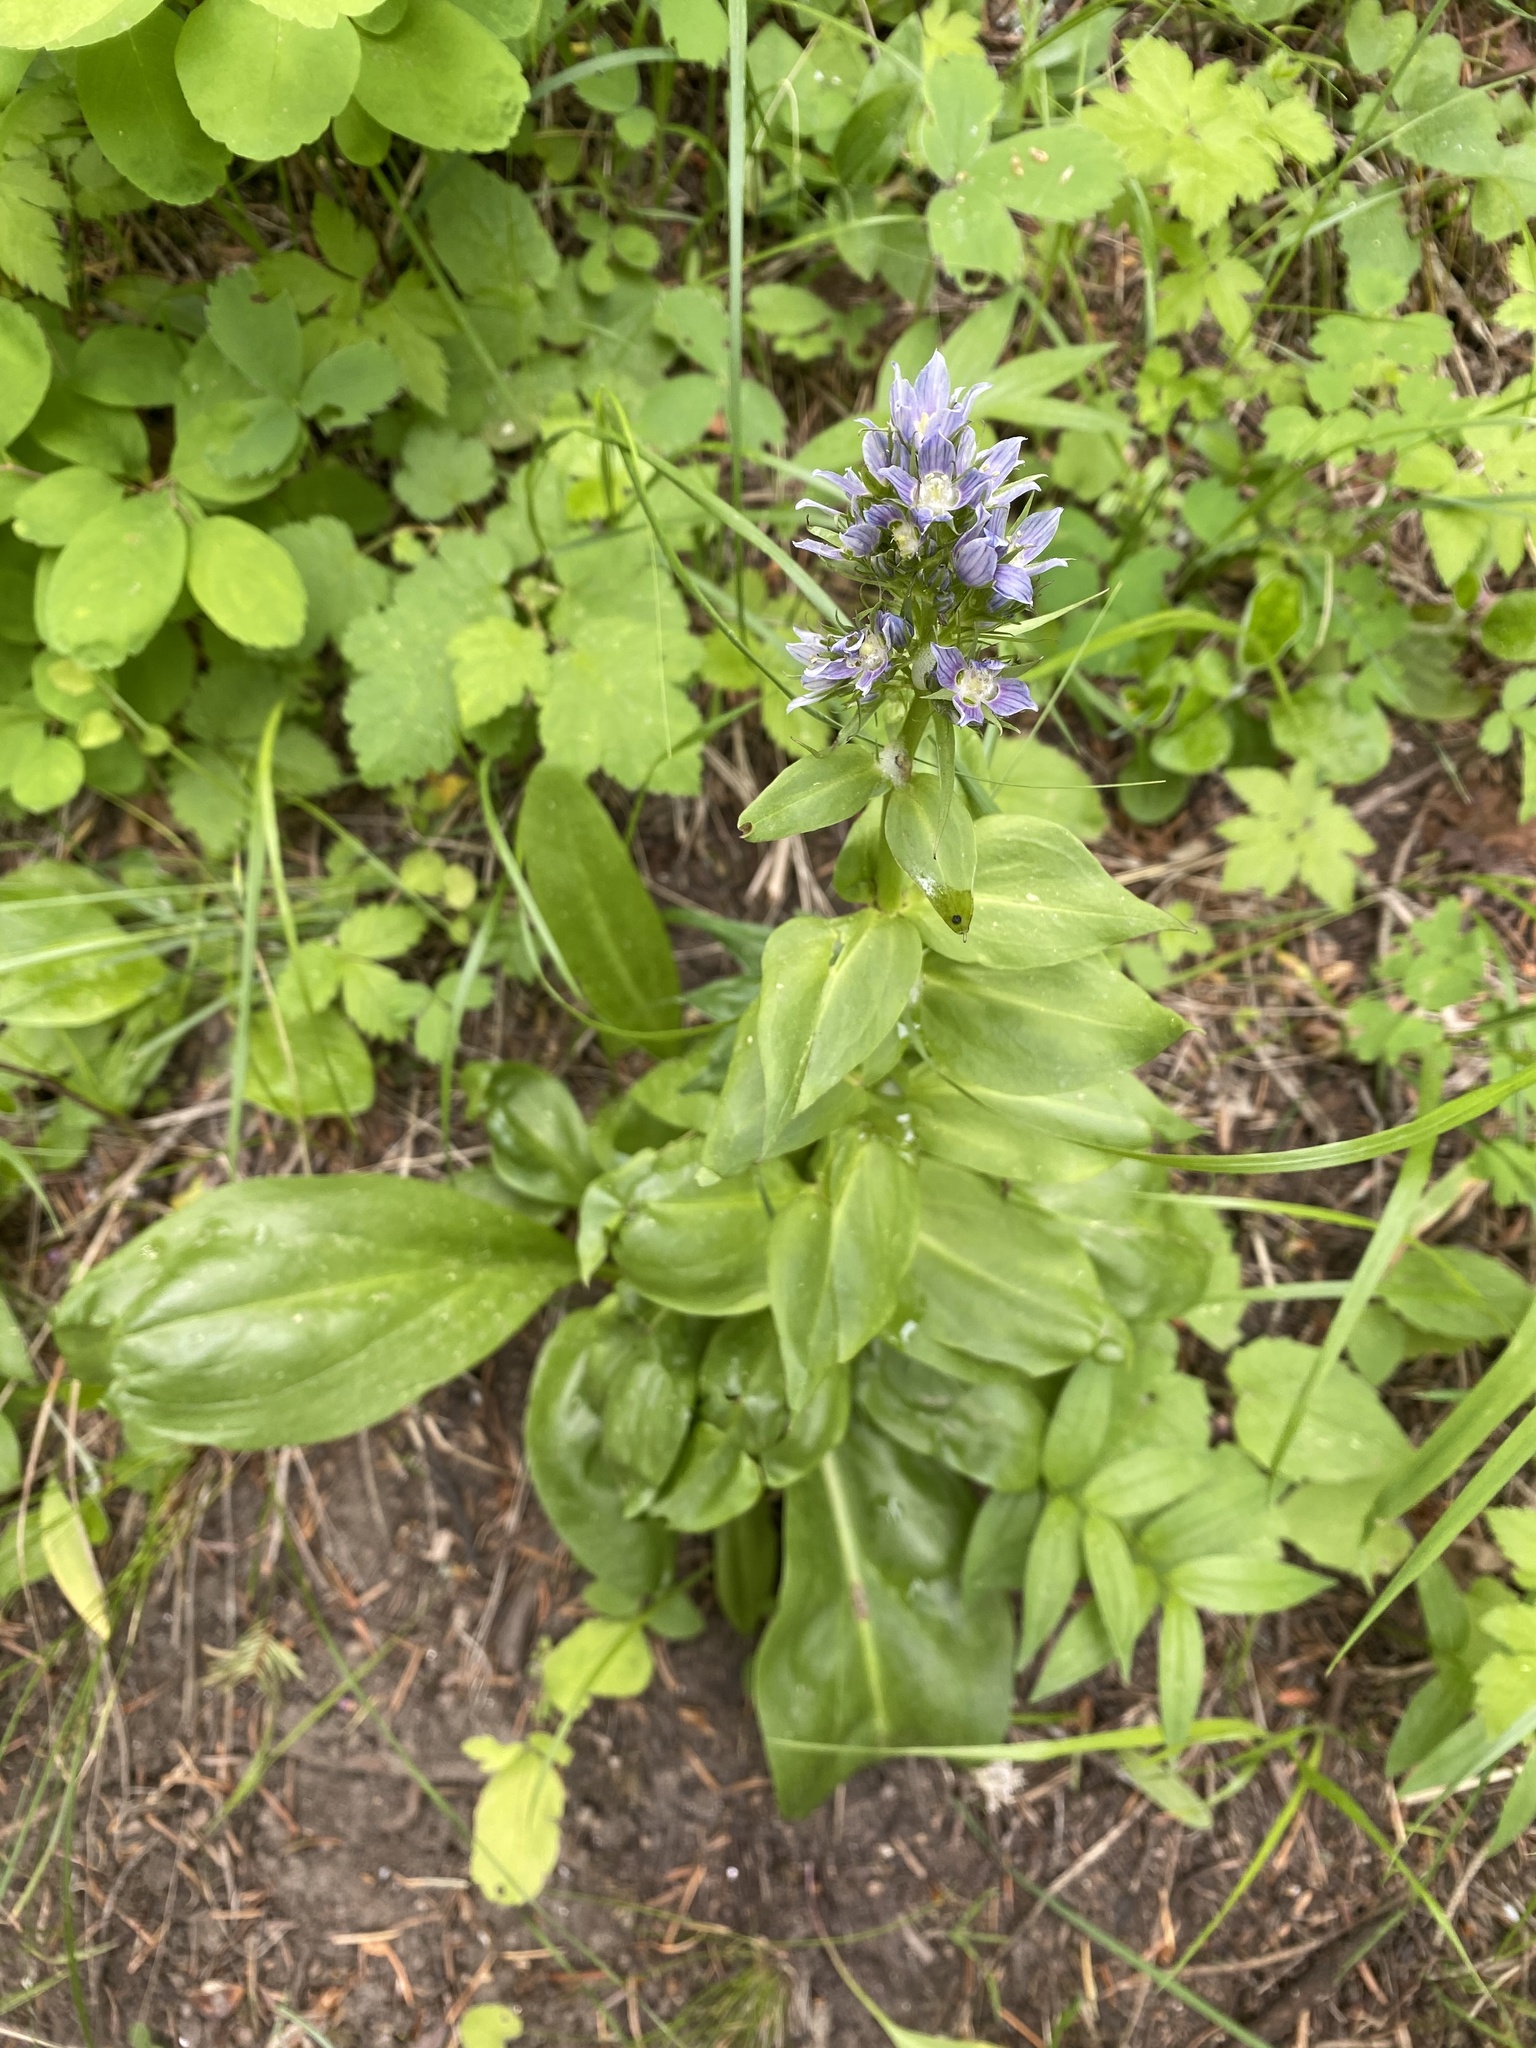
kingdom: Plantae
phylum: Tracheophyta
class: Magnoliopsida
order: Gentianales
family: Gentianaceae
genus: Frasera
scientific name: Frasera fastigiata
